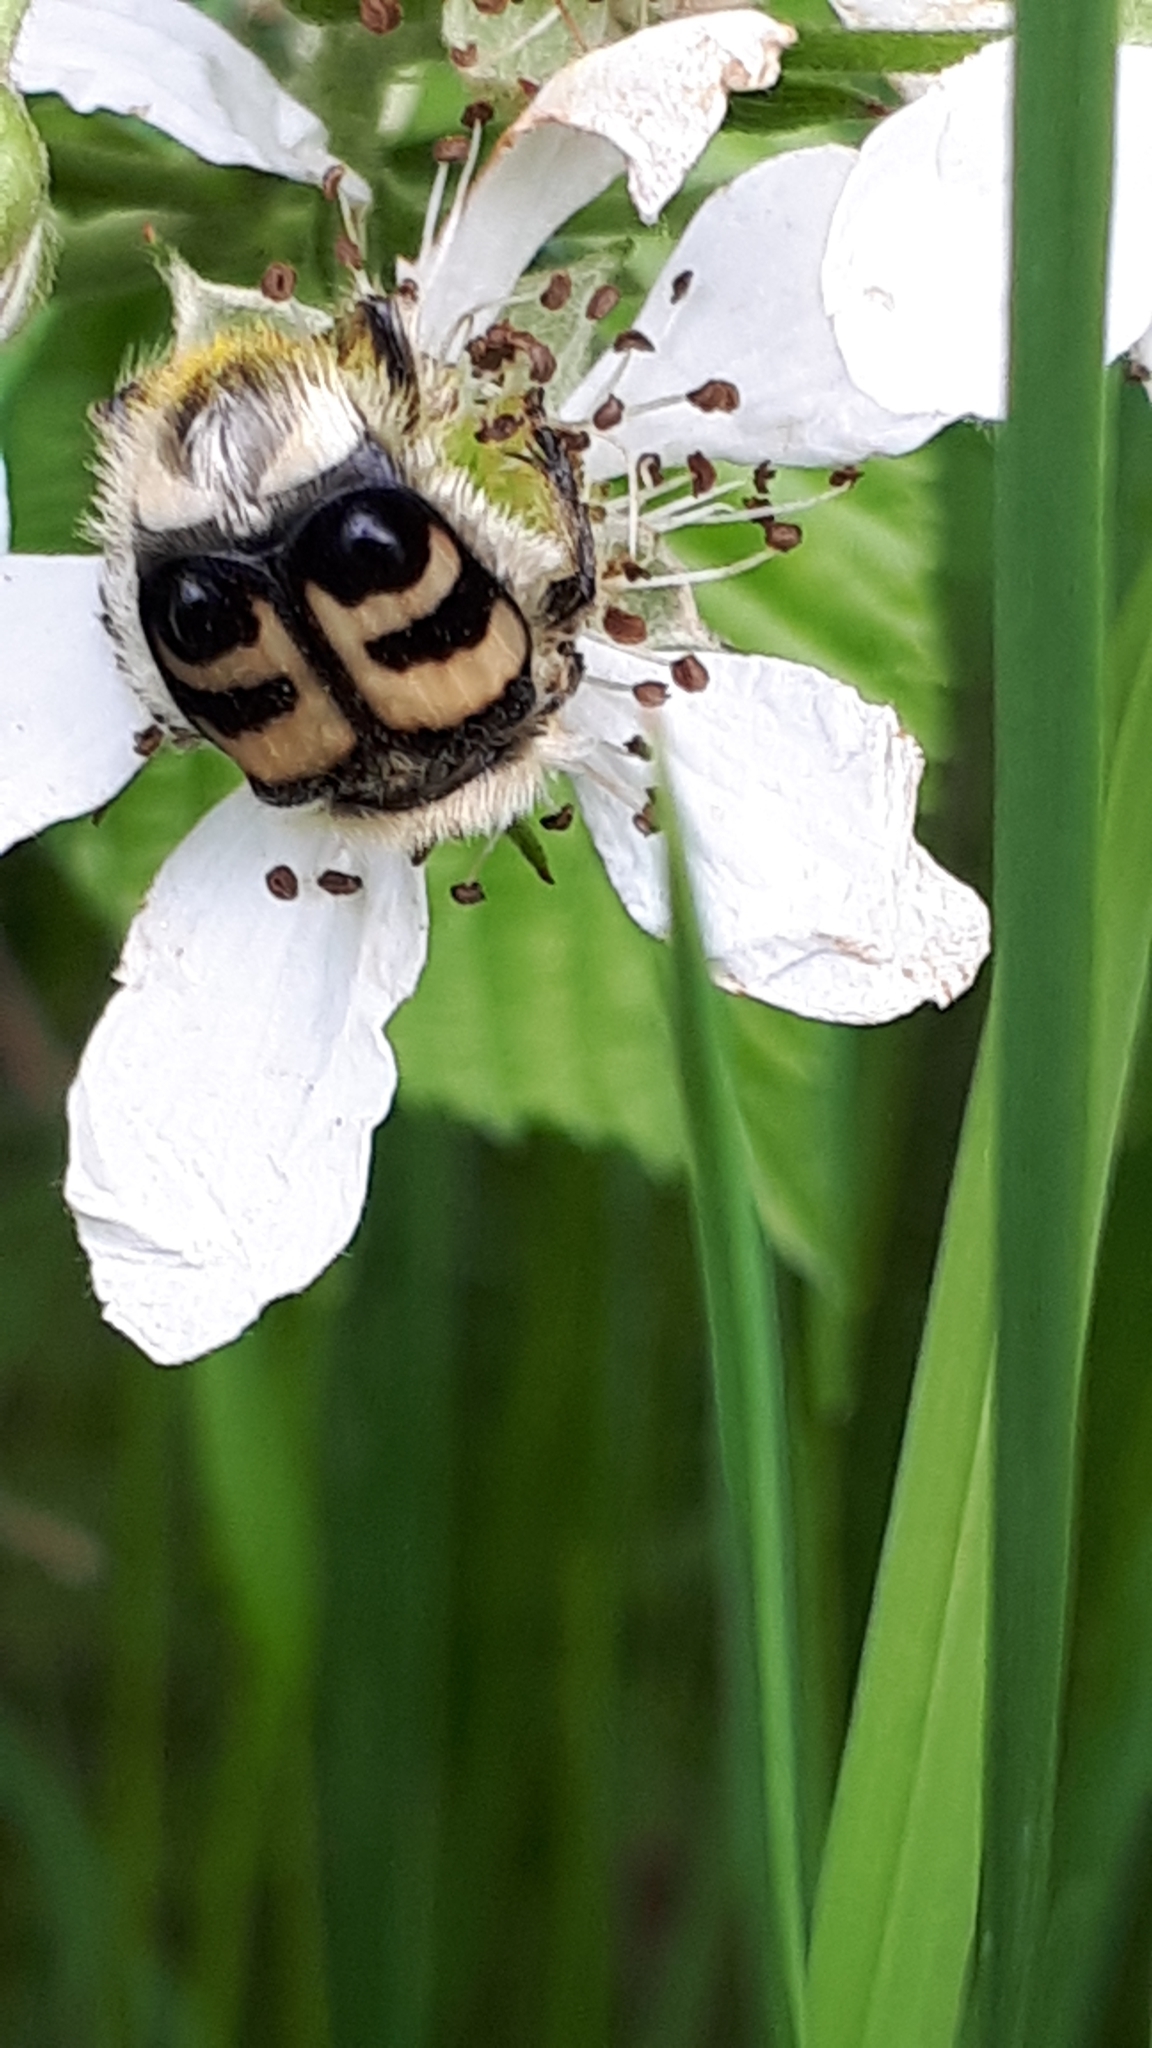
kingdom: Animalia
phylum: Arthropoda
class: Insecta
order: Coleoptera
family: Scarabaeidae
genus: Trichius
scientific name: Trichius fasciatus
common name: Bee beetle
